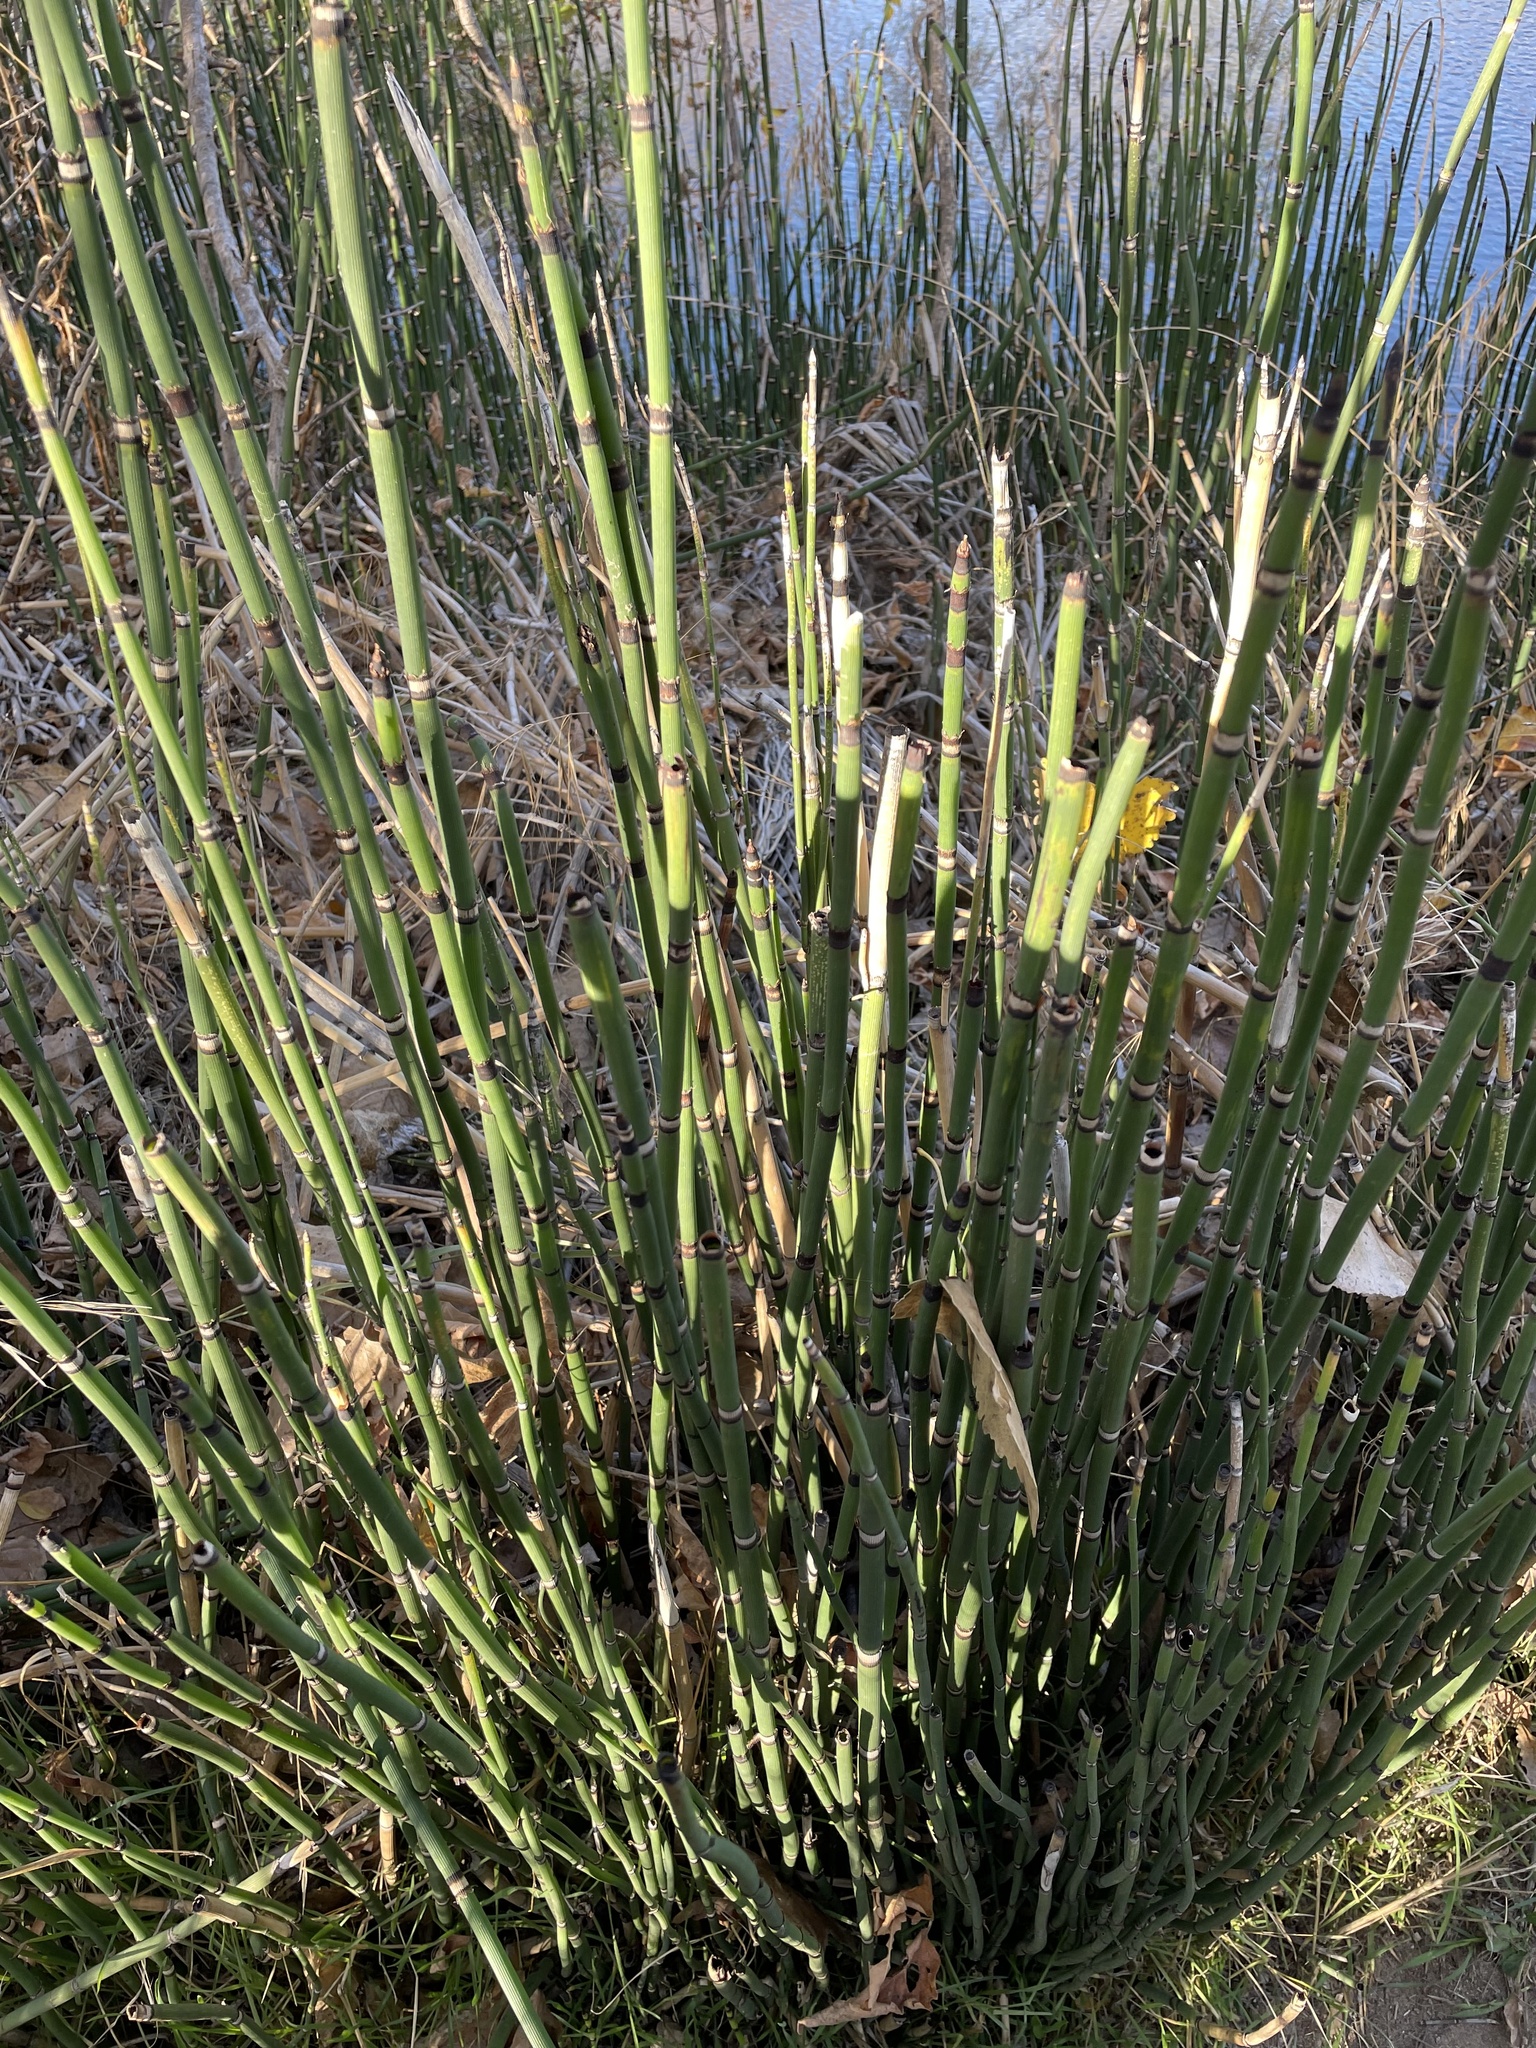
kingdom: Plantae
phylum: Tracheophyta
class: Polypodiopsida
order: Equisetales
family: Equisetaceae
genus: Equisetum
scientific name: Equisetum praealtum
